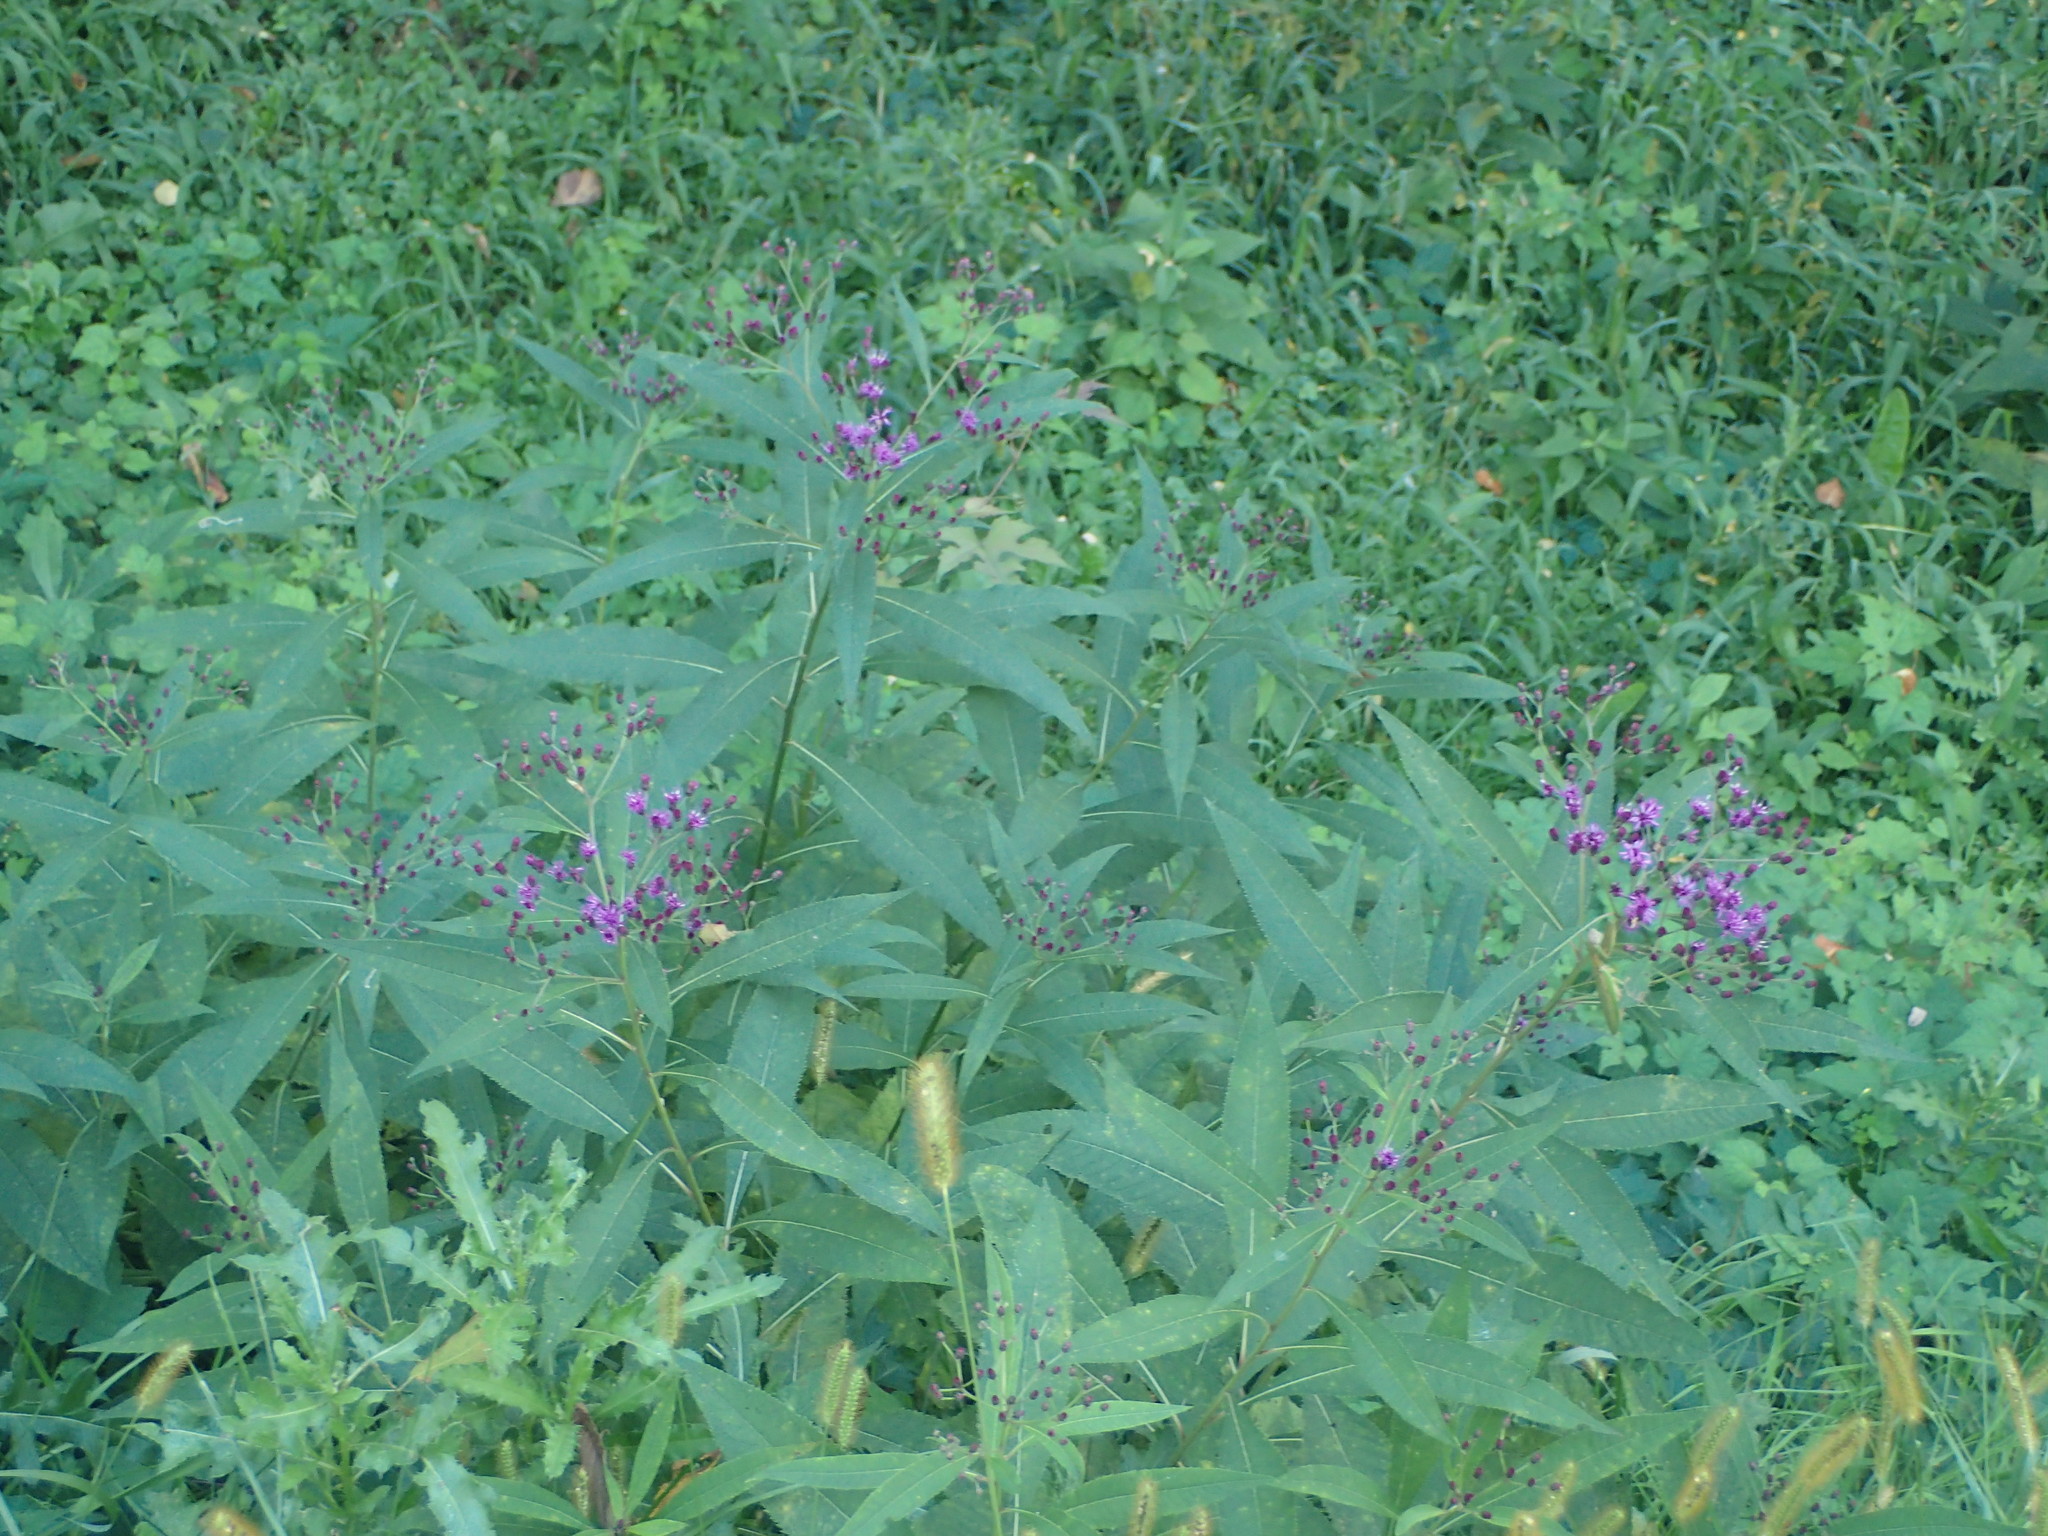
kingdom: Plantae
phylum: Tracheophyta
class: Magnoliopsida
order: Asterales
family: Asteraceae
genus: Vernonia
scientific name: Vernonia gigantea
